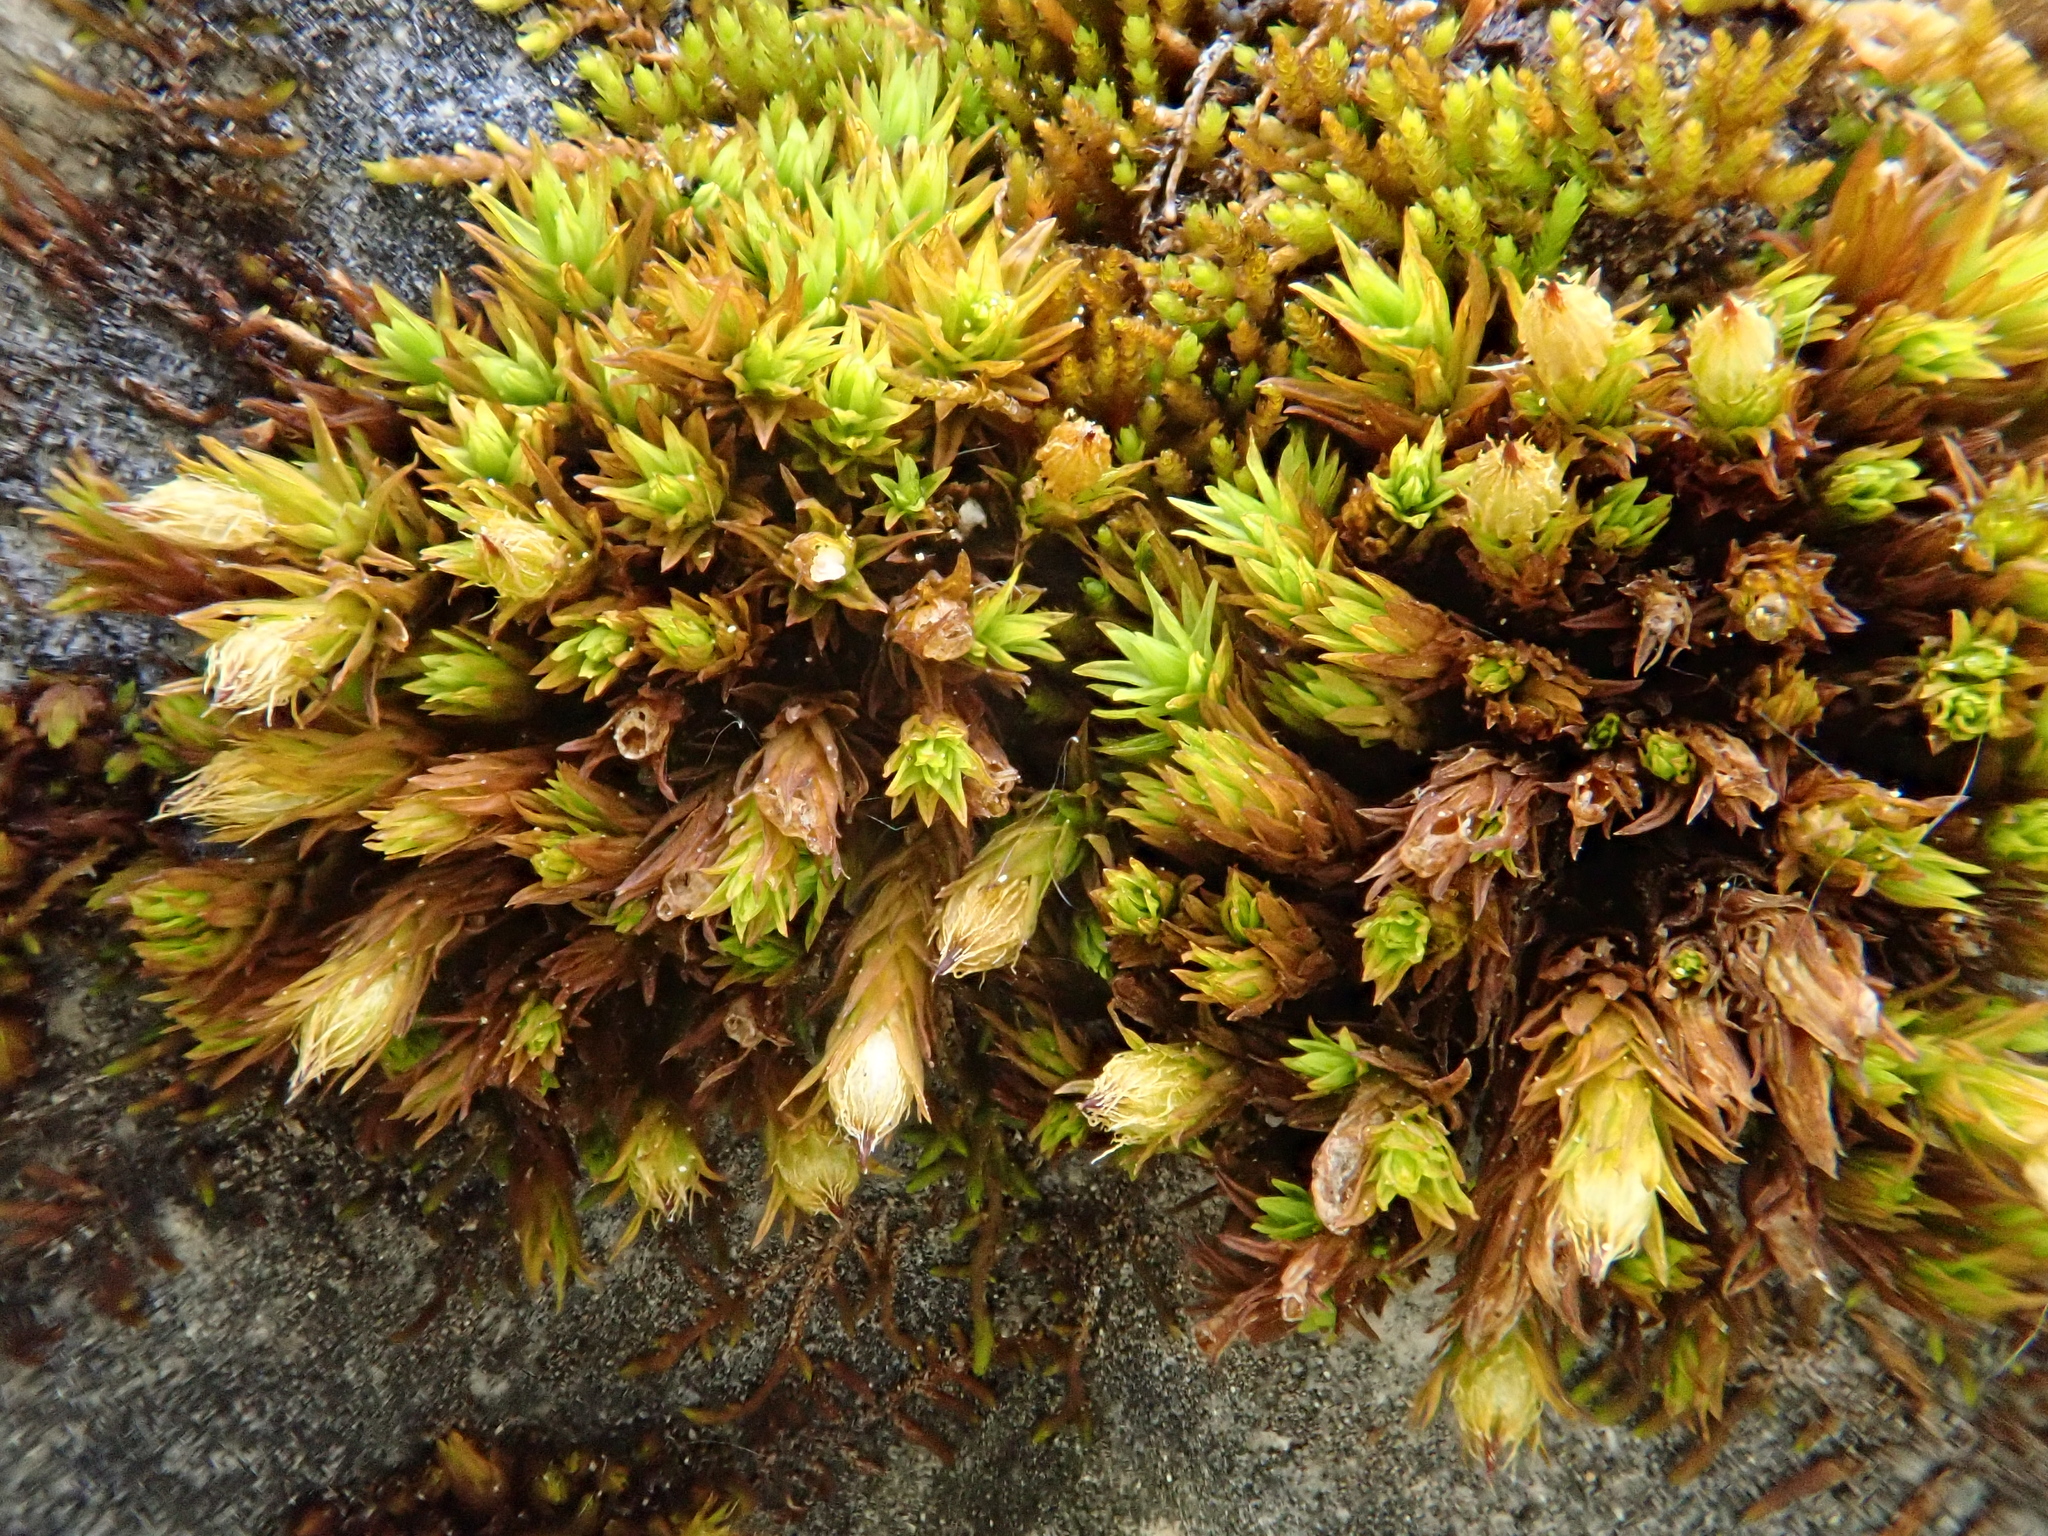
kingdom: Plantae
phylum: Bryophyta
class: Bryopsida
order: Orthotrichales
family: Orthotrichaceae
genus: Orthotrichum
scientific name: Orthotrichum cupulatum
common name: Hooded bristle-moss
